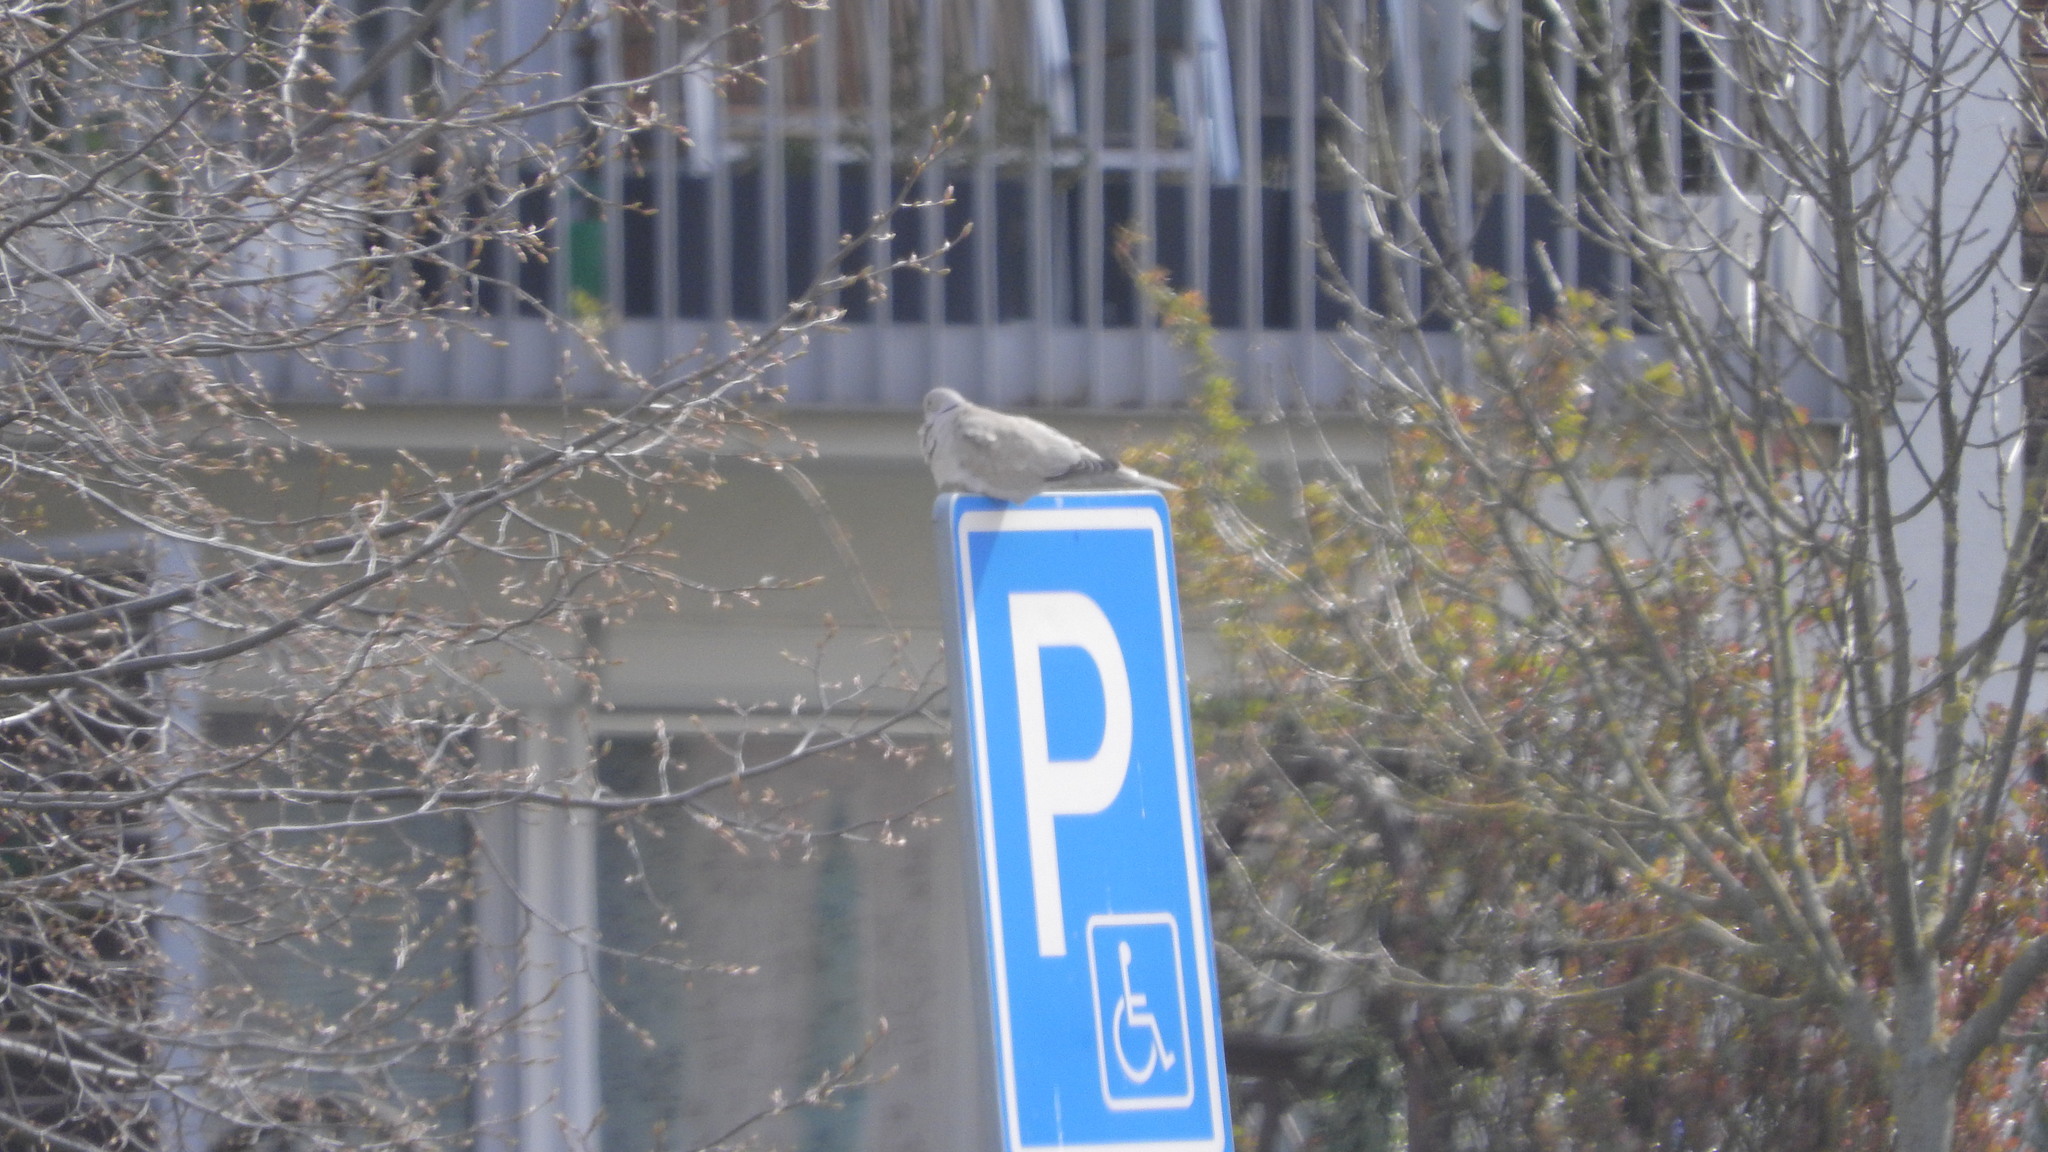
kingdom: Animalia
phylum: Chordata
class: Aves
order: Columbiformes
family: Columbidae
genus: Streptopelia
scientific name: Streptopelia decaocto
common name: Eurasian collared dove
